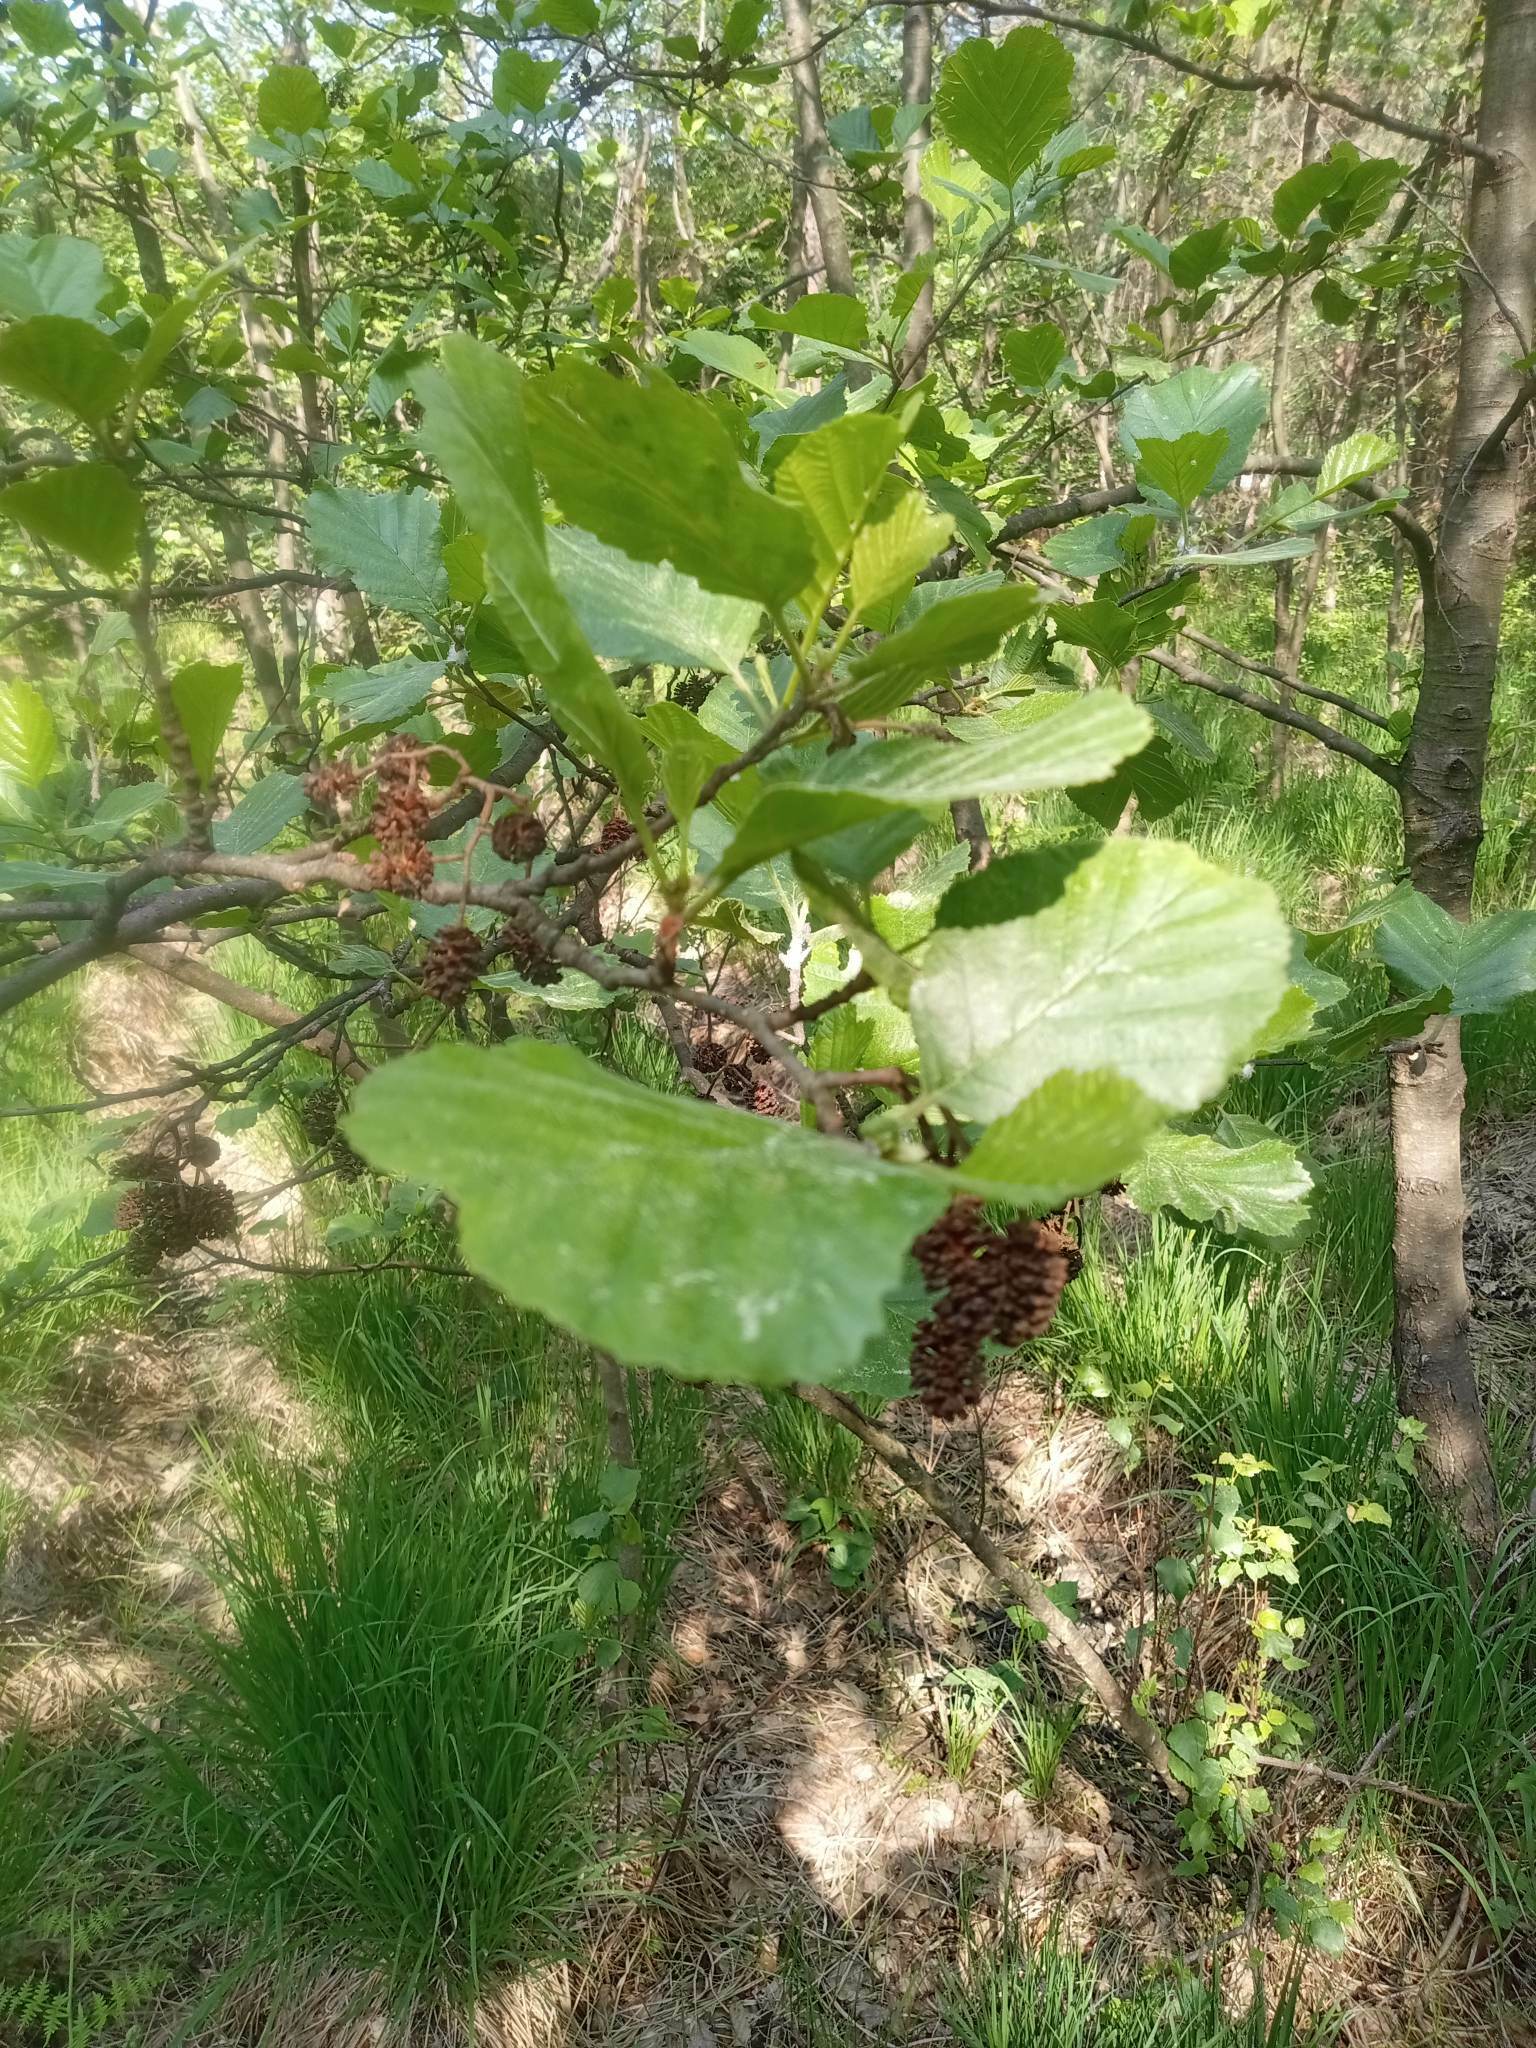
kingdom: Plantae
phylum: Tracheophyta
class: Magnoliopsida
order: Fagales
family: Betulaceae
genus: Alnus
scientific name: Alnus glutinosa
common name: Black alder
